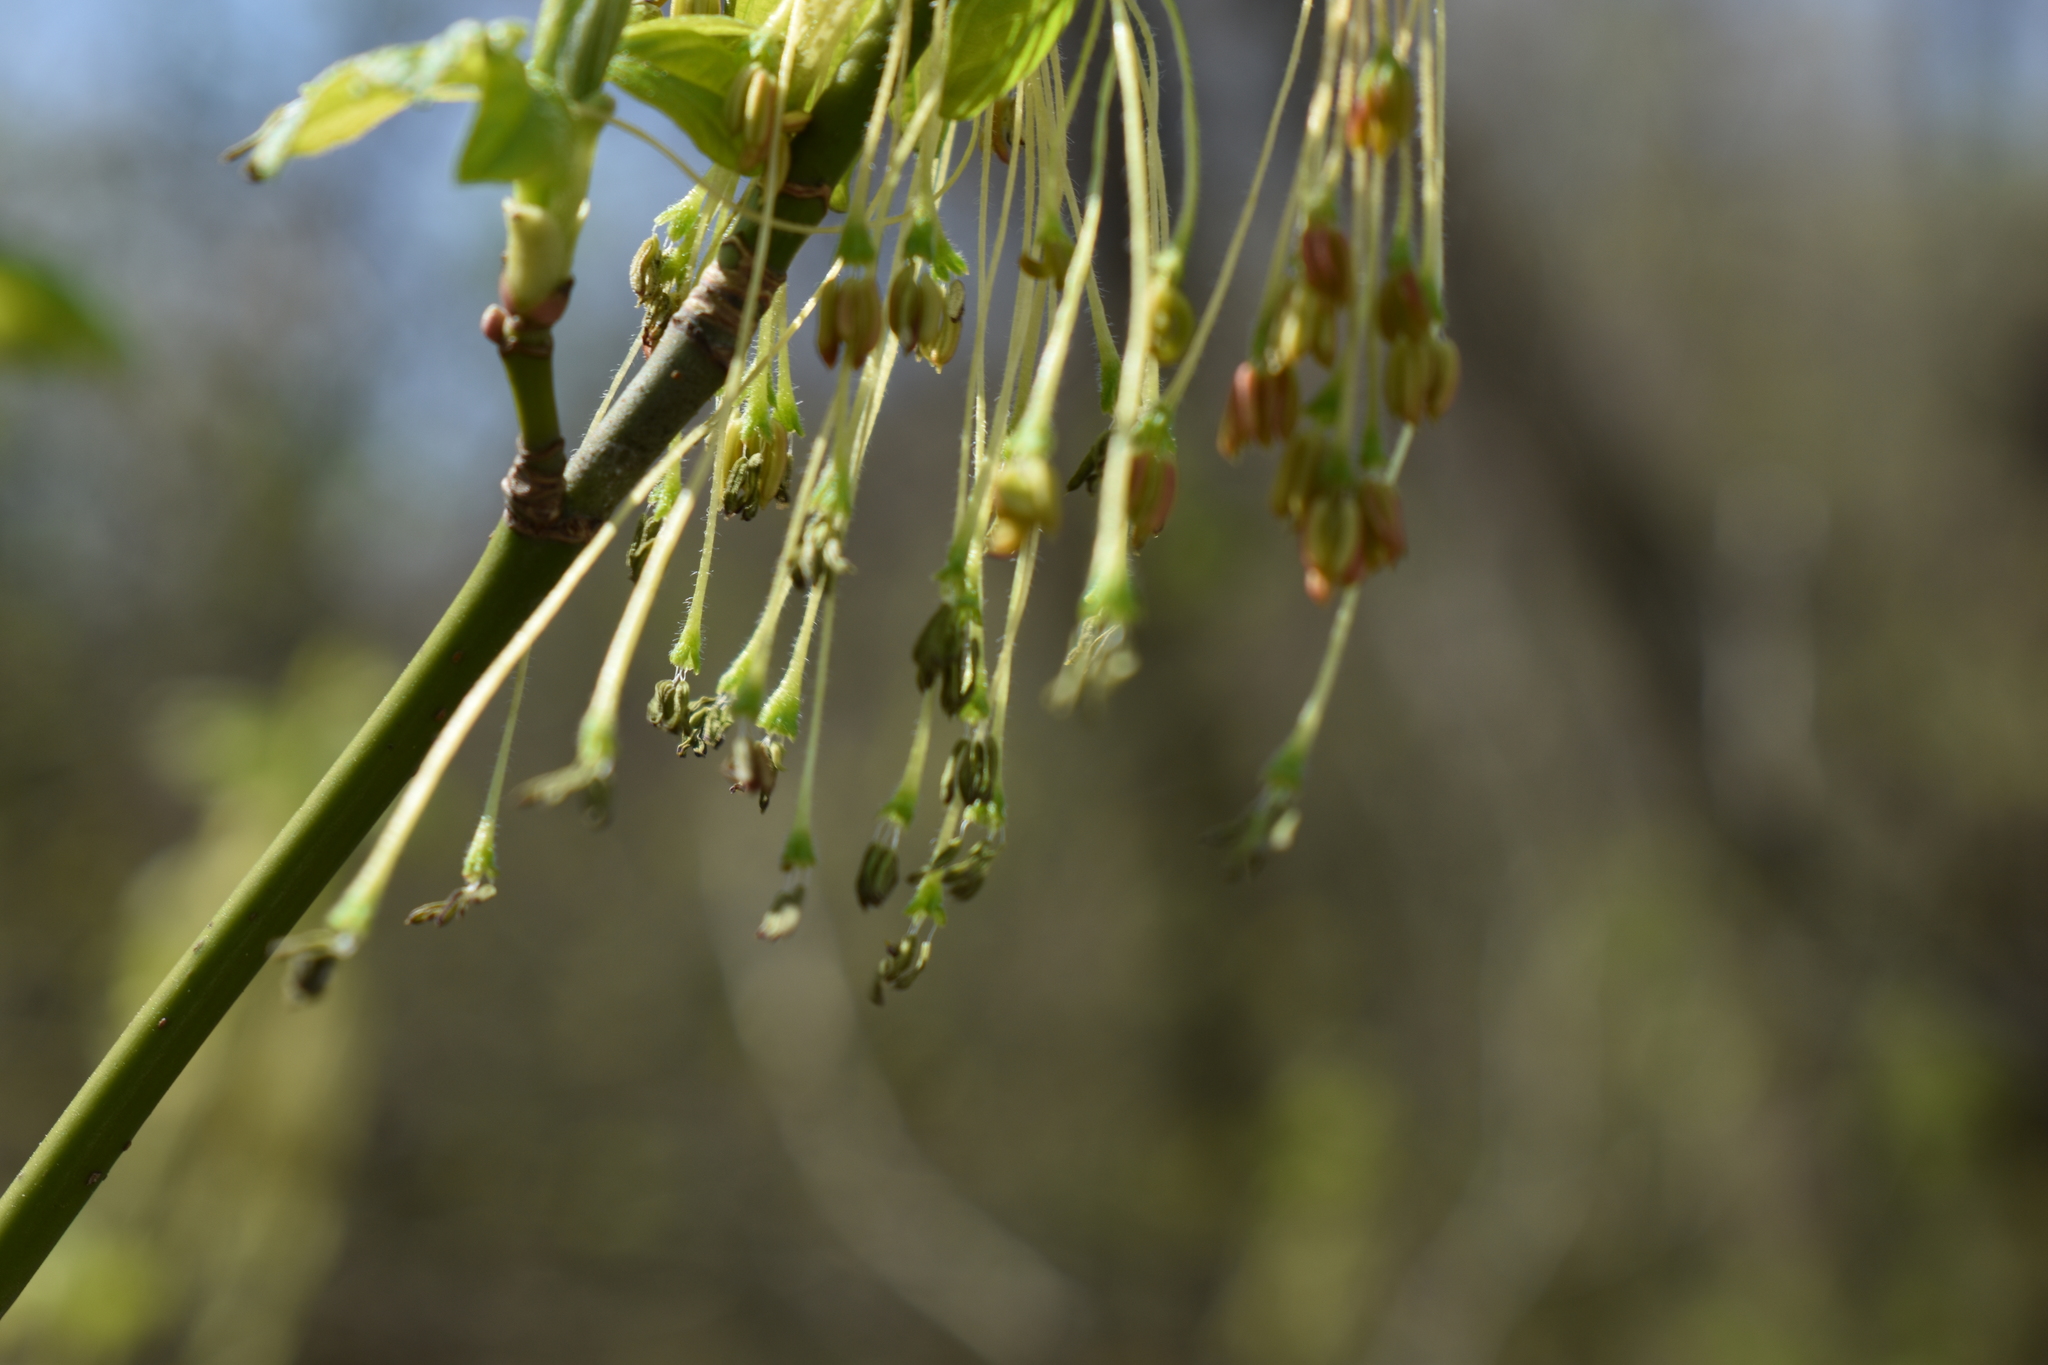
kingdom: Plantae
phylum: Tracheophyta
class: Magnoliopsida
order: Sapindales
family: Sapindaceae
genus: Acer
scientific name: Acer negundo
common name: Ashleaf maple
